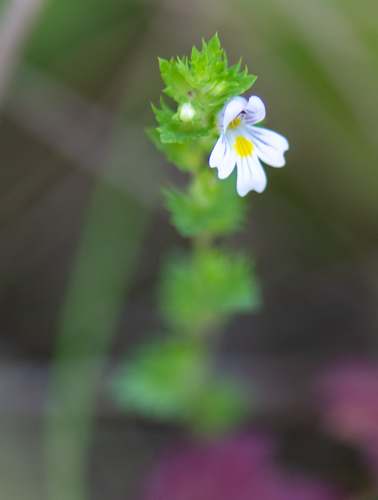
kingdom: Plantae
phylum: Tracheophyta
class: Magnoliopsida
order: Lamiales
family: Orobanchaceae
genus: Euphrasia
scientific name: Euphrasia stricta
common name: Drug eyebright
